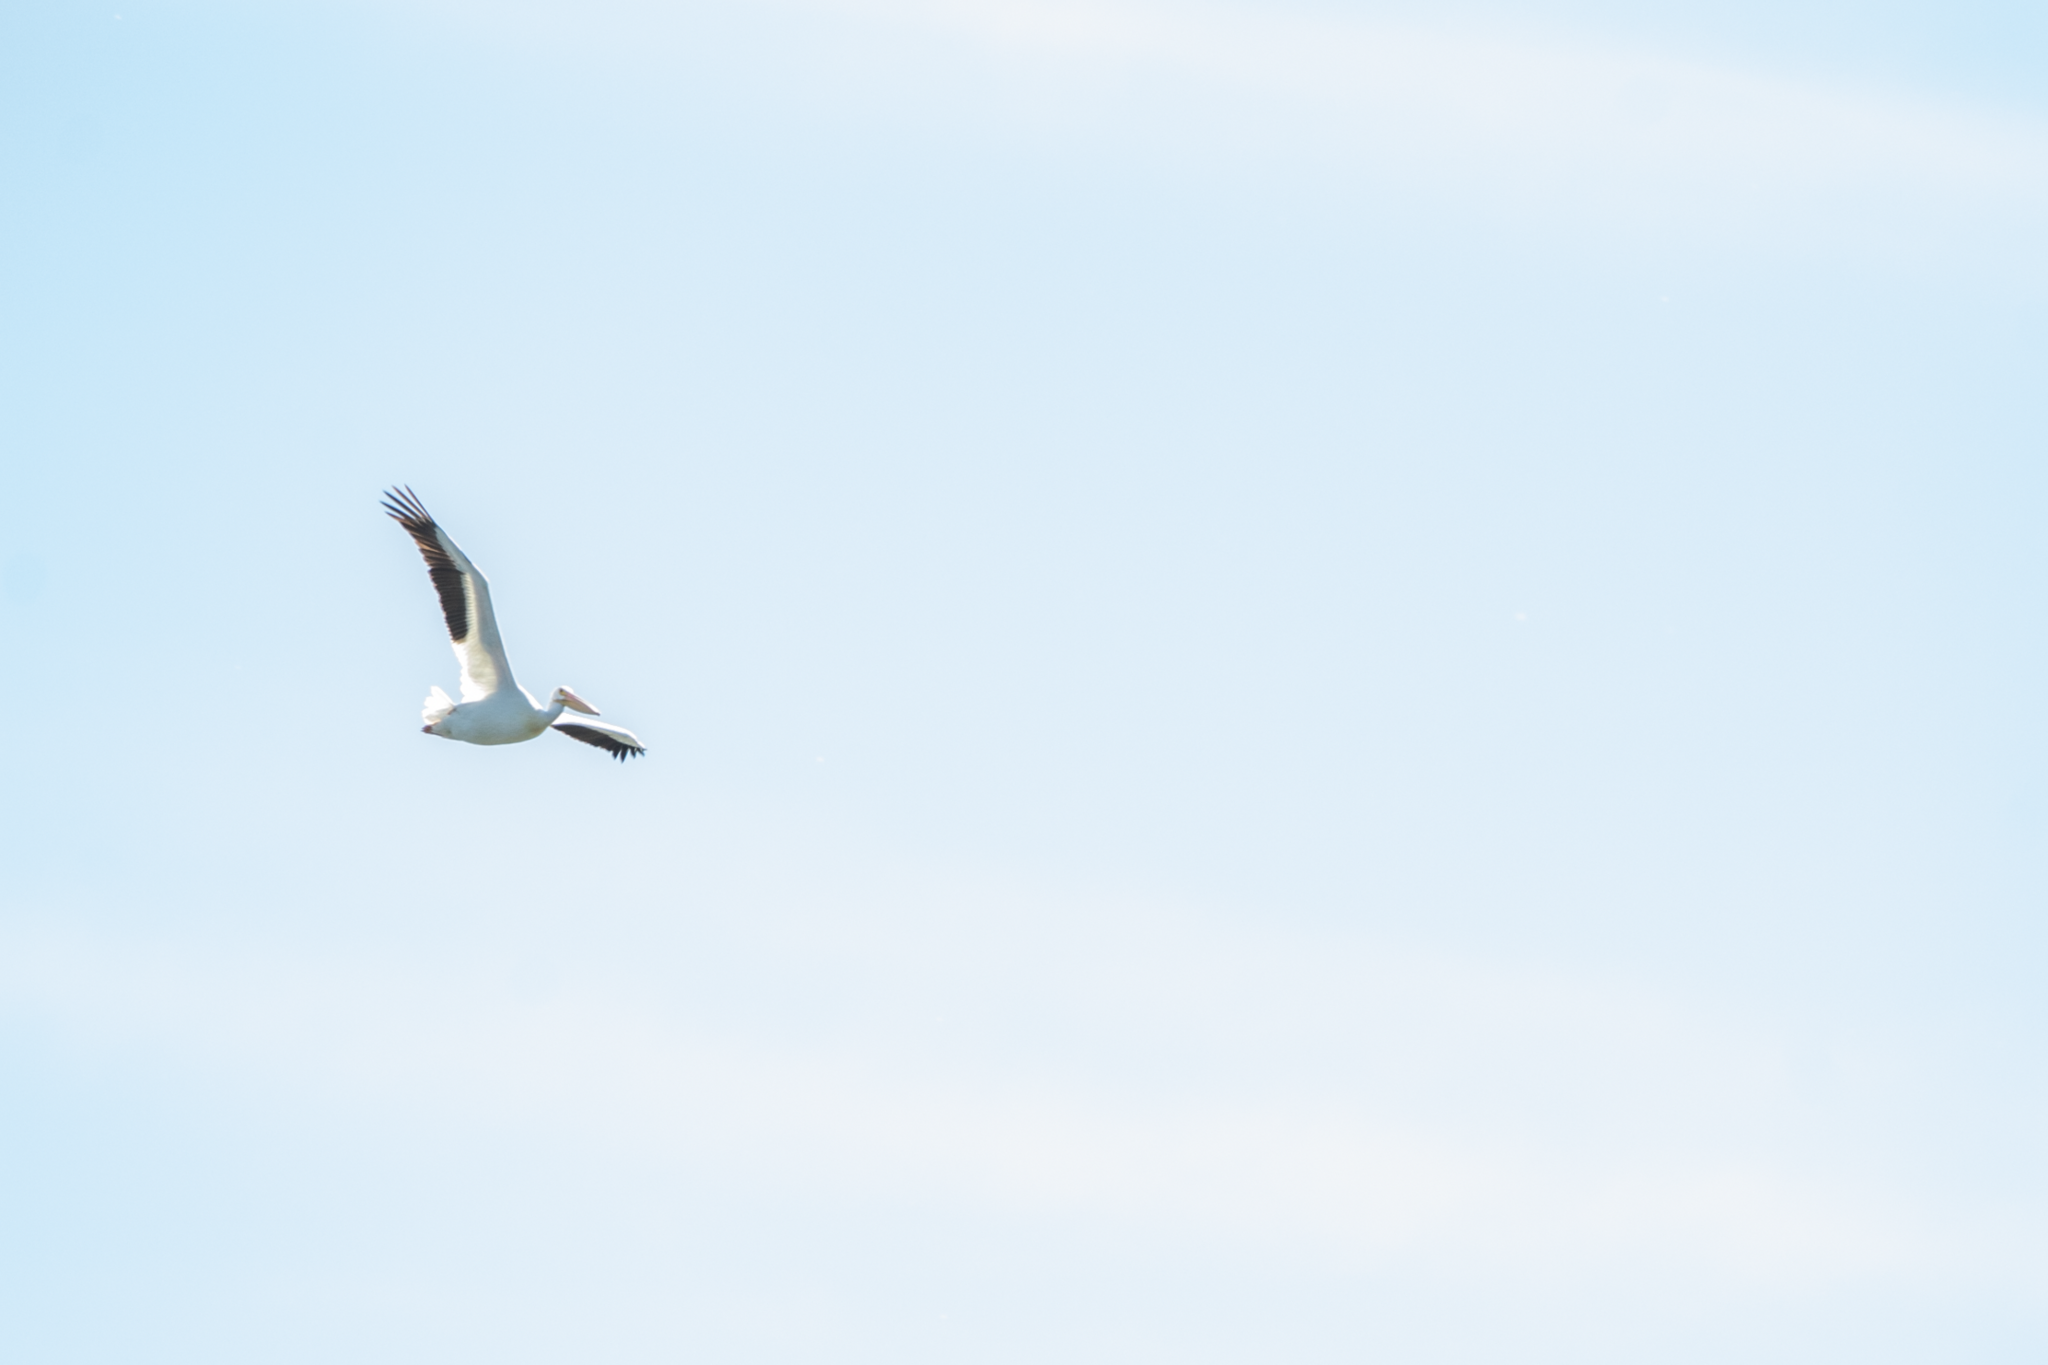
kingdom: Animalia
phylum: Chordata
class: Aves
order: Pelecaniformes
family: Pelecanidae
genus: Pelecanus
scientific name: Pelecanus erythrorhynchos
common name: American white pelican
